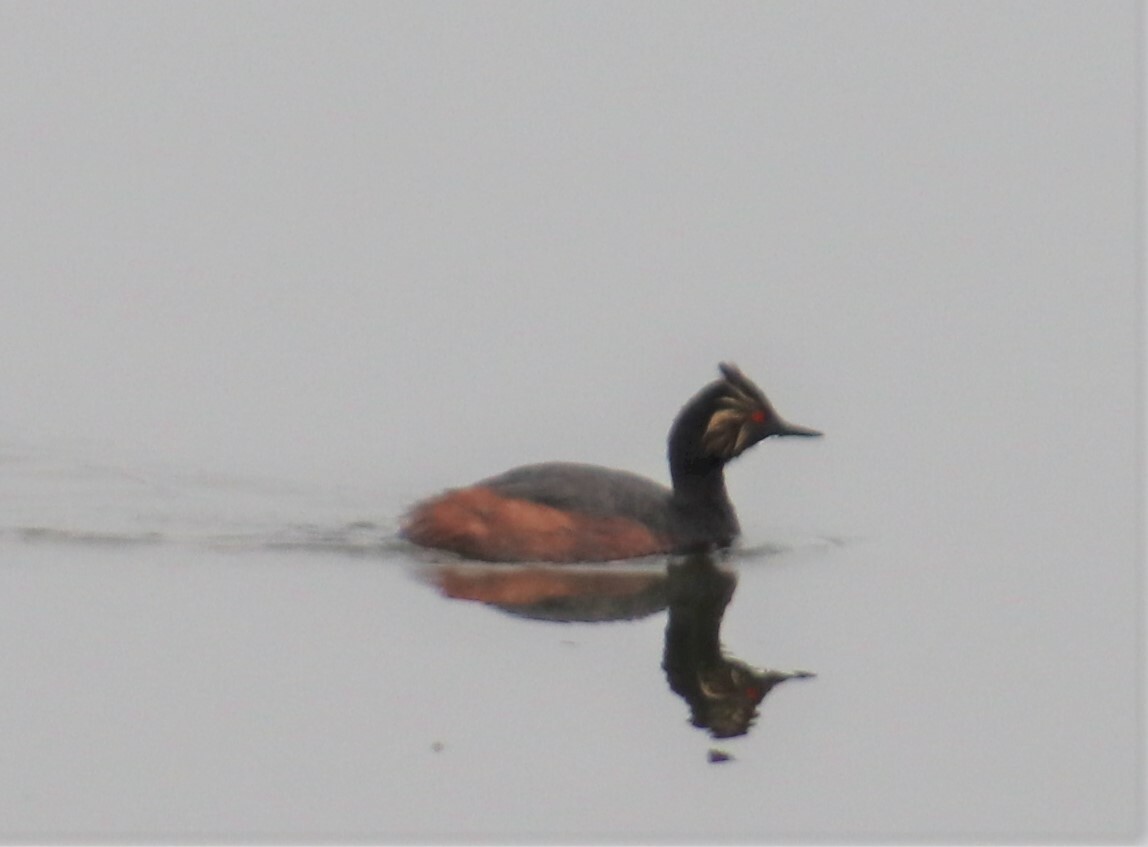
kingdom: Animalia
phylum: Chordata
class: Aves
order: Podicipediformes
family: Podicipedidae
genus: Podiceps
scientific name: Podiceps nigricollis
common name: Black-necked grebe
